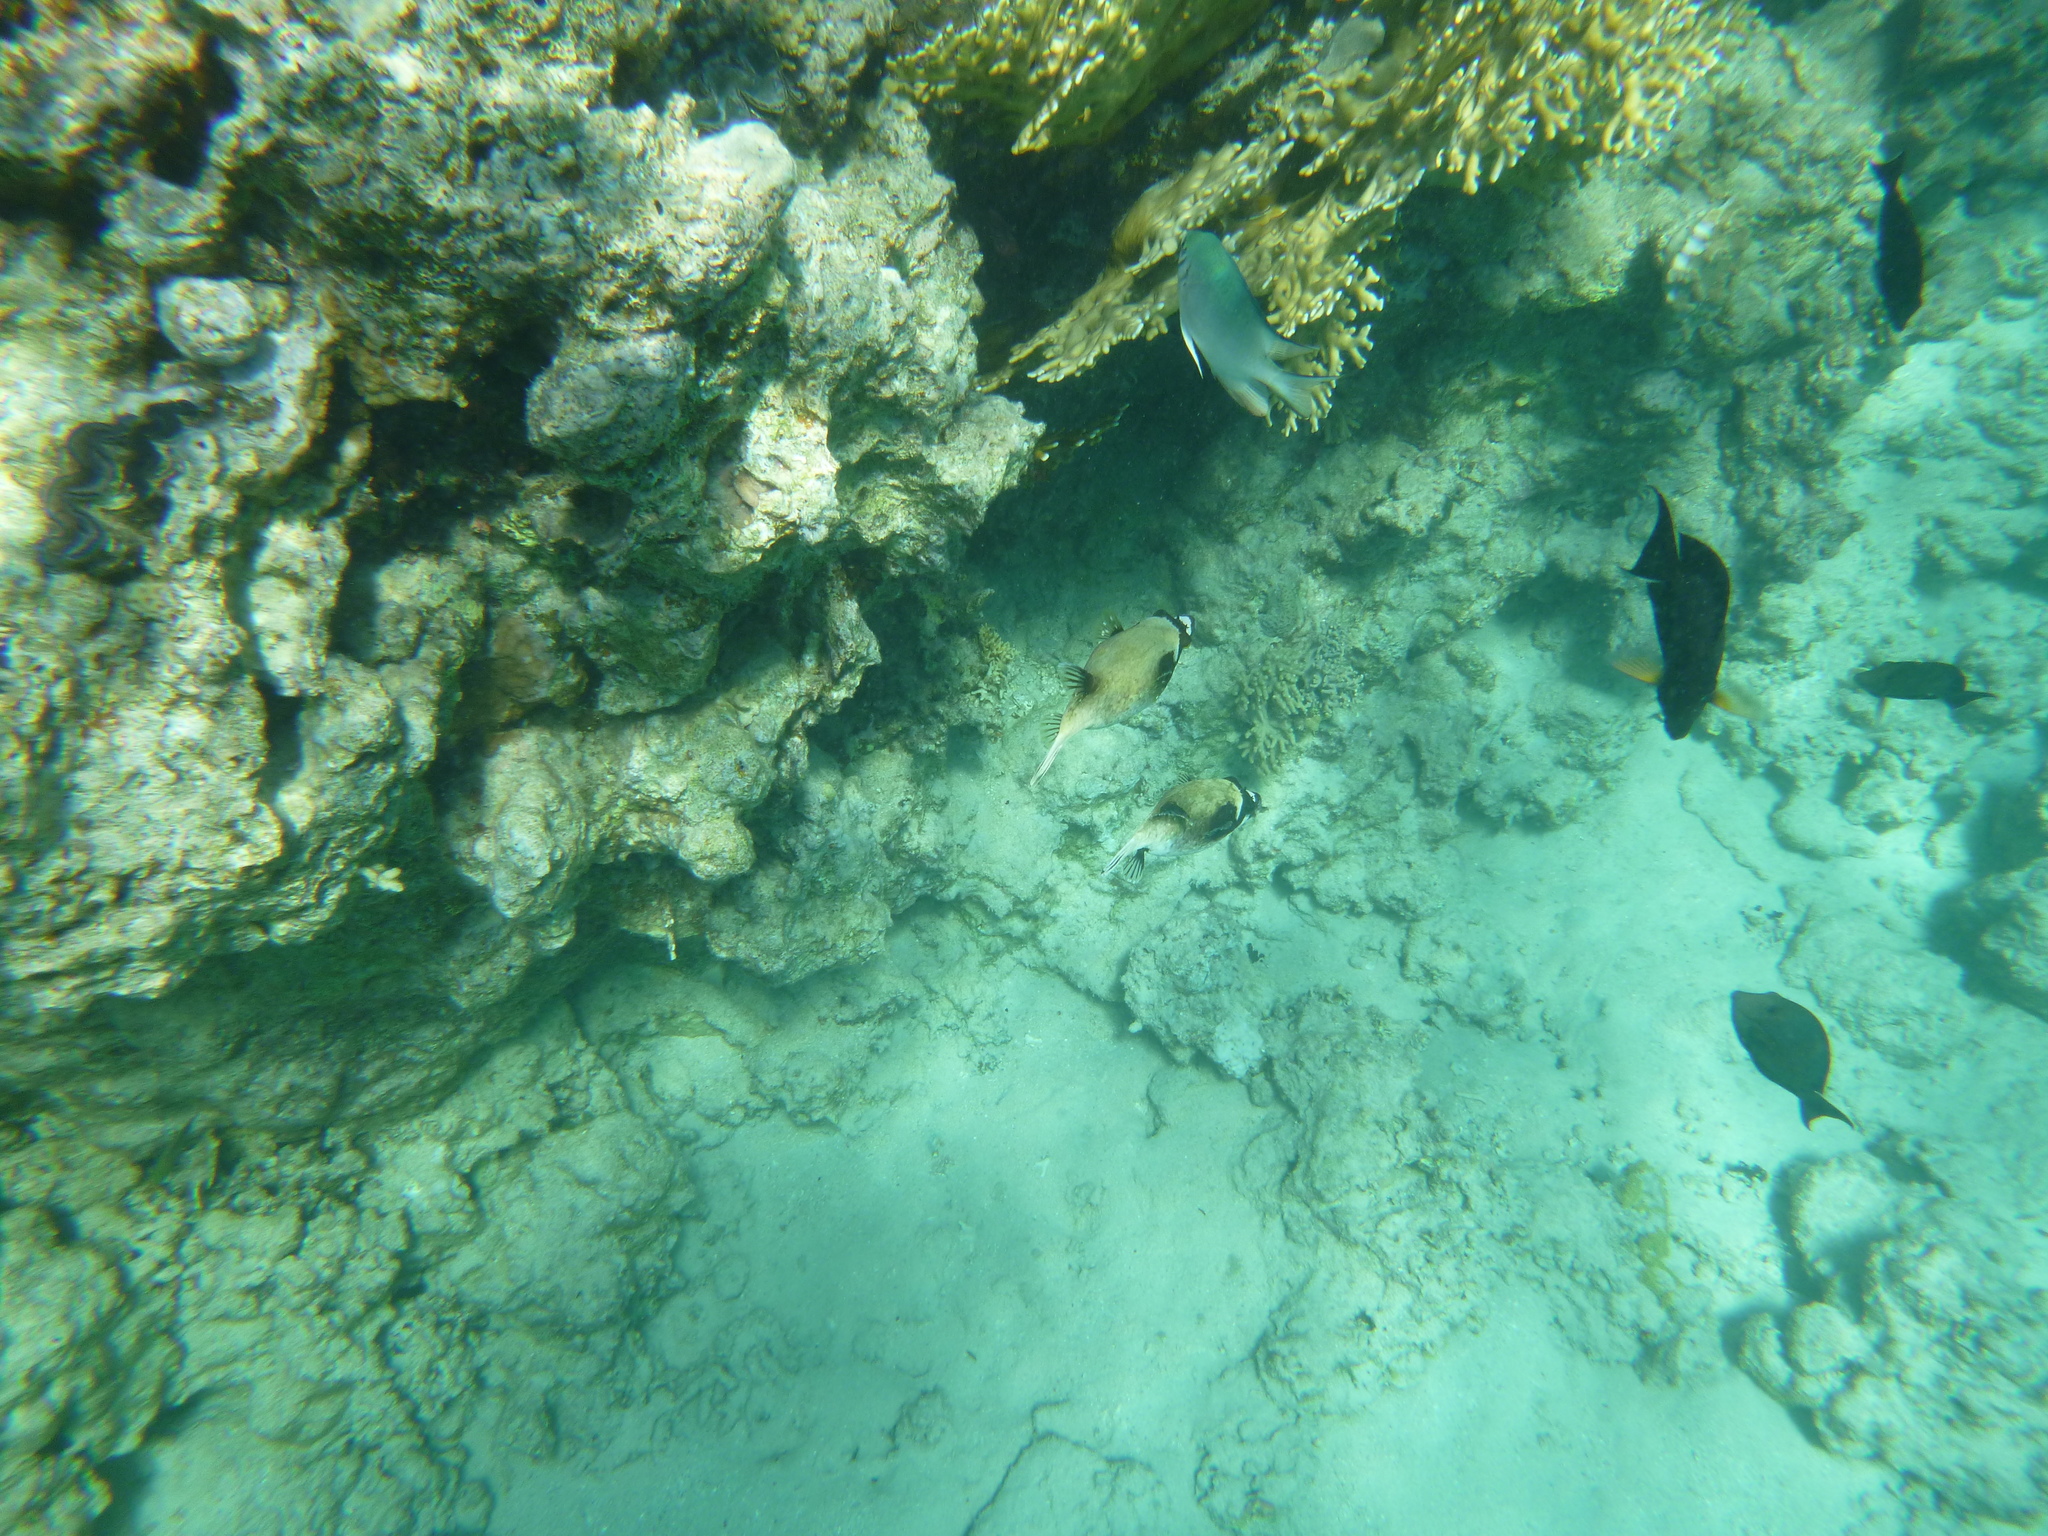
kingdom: Animalia
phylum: Chordata
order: Tetraodontiformes
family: Tetraodontidae
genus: Arothron
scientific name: Arothron diadematus
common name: Masked puffer
